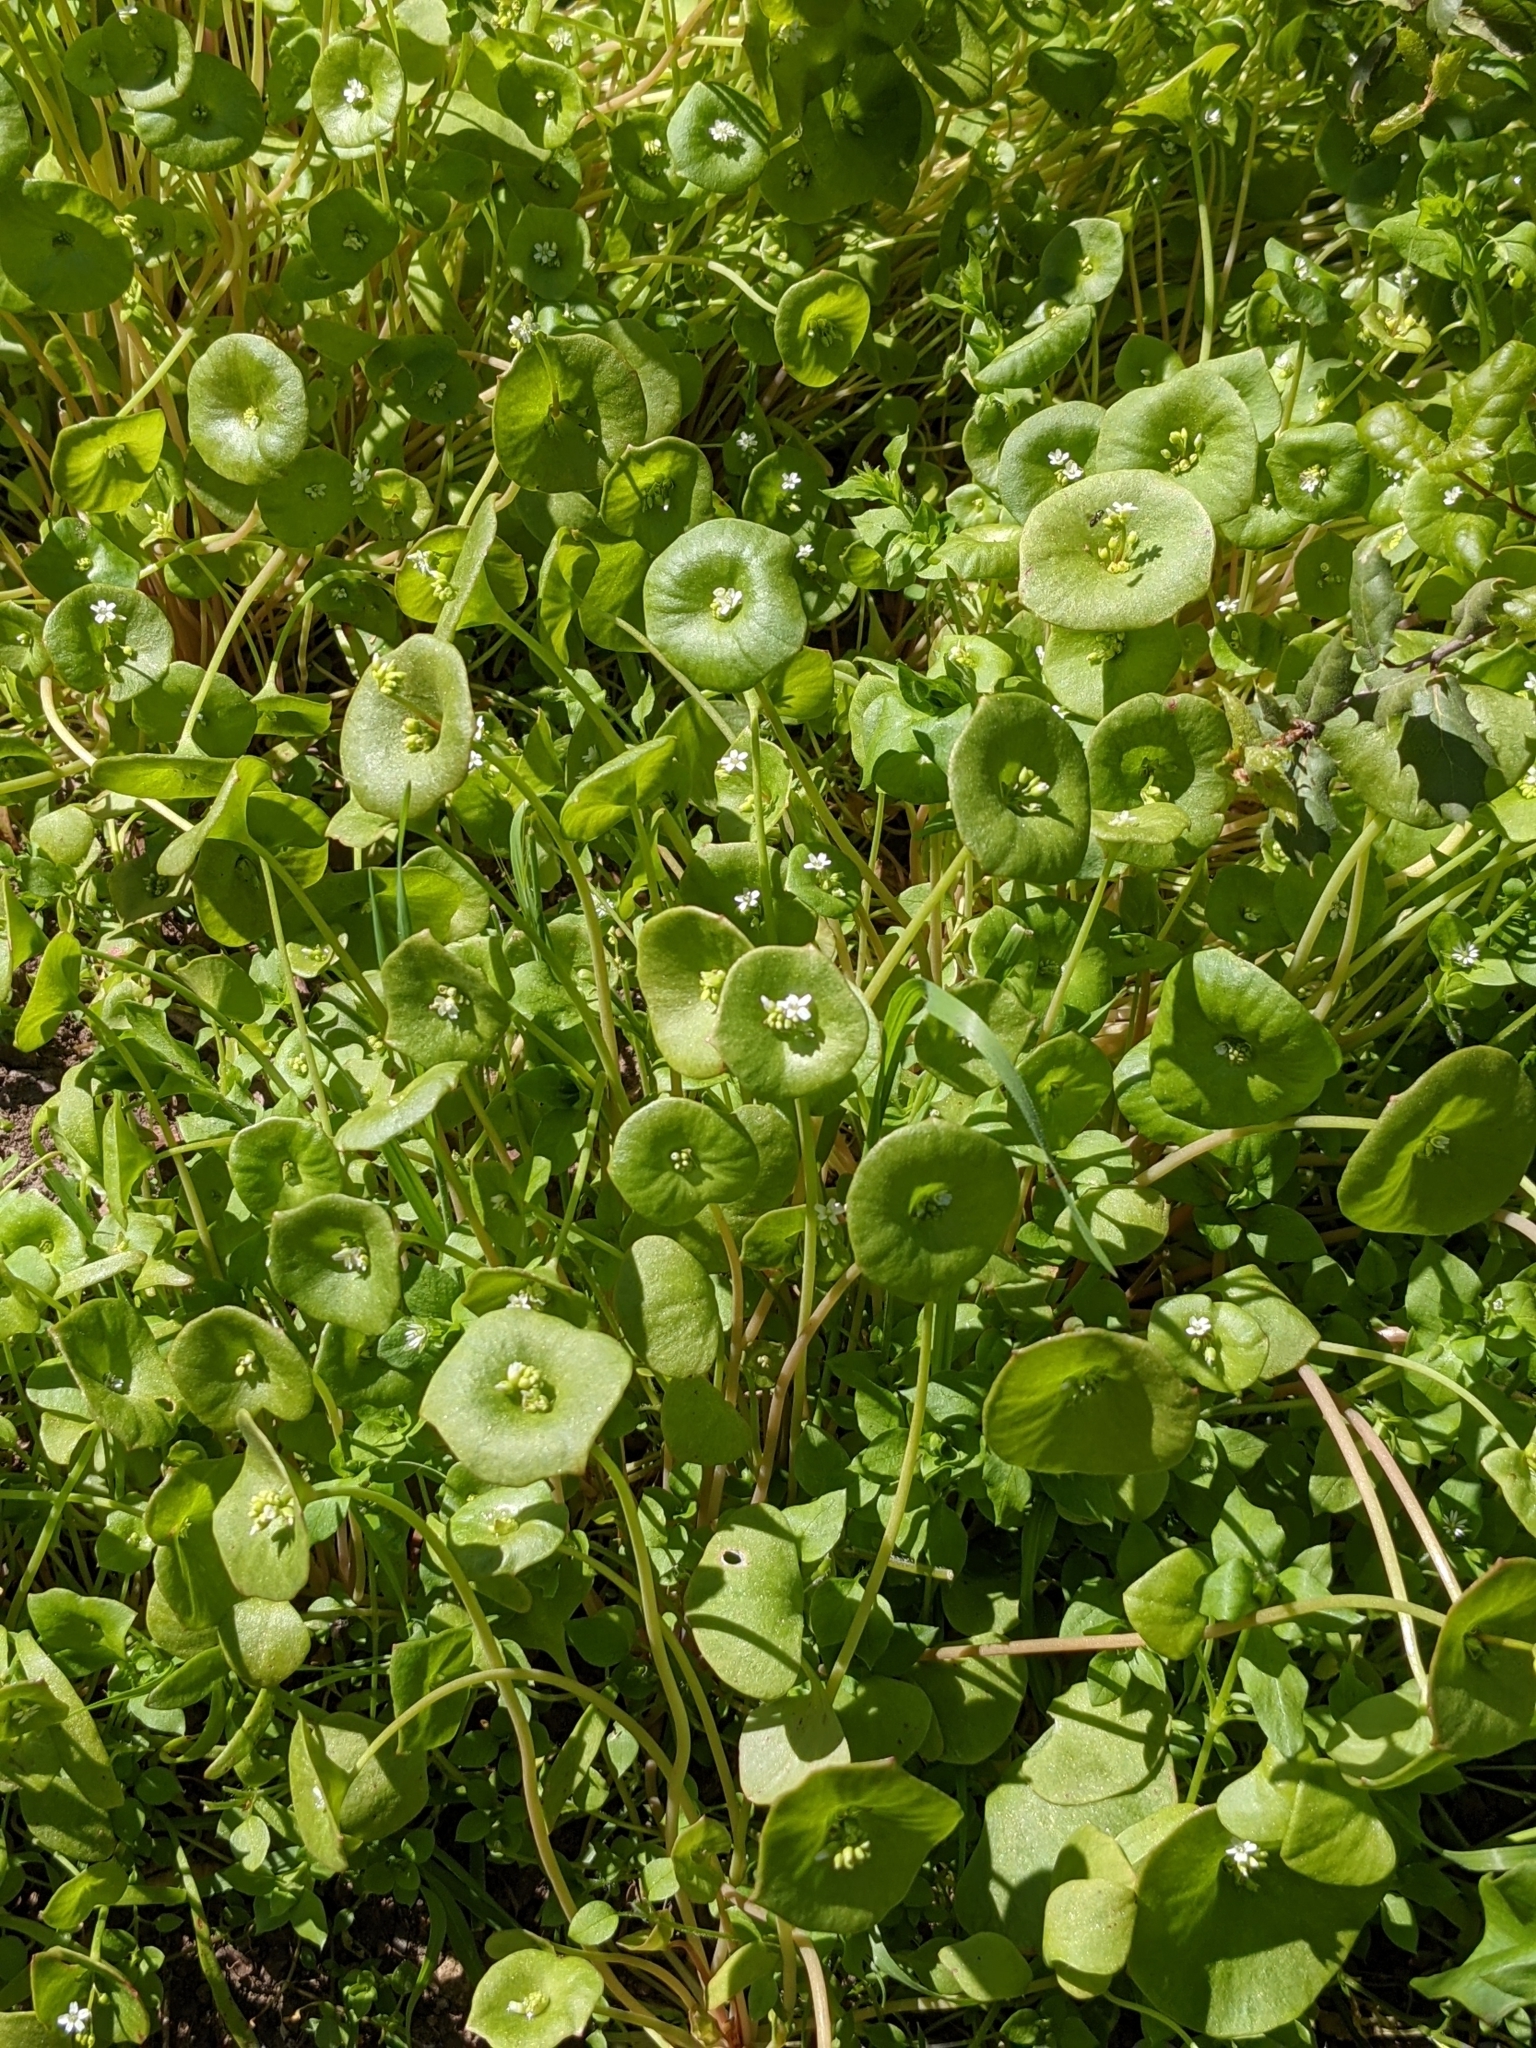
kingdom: Plantae
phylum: Tracheophyta
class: Magnoliopsida
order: Caryophyllales
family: Montiaceae
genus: Claytonia
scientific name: Claytonia perfoliata
